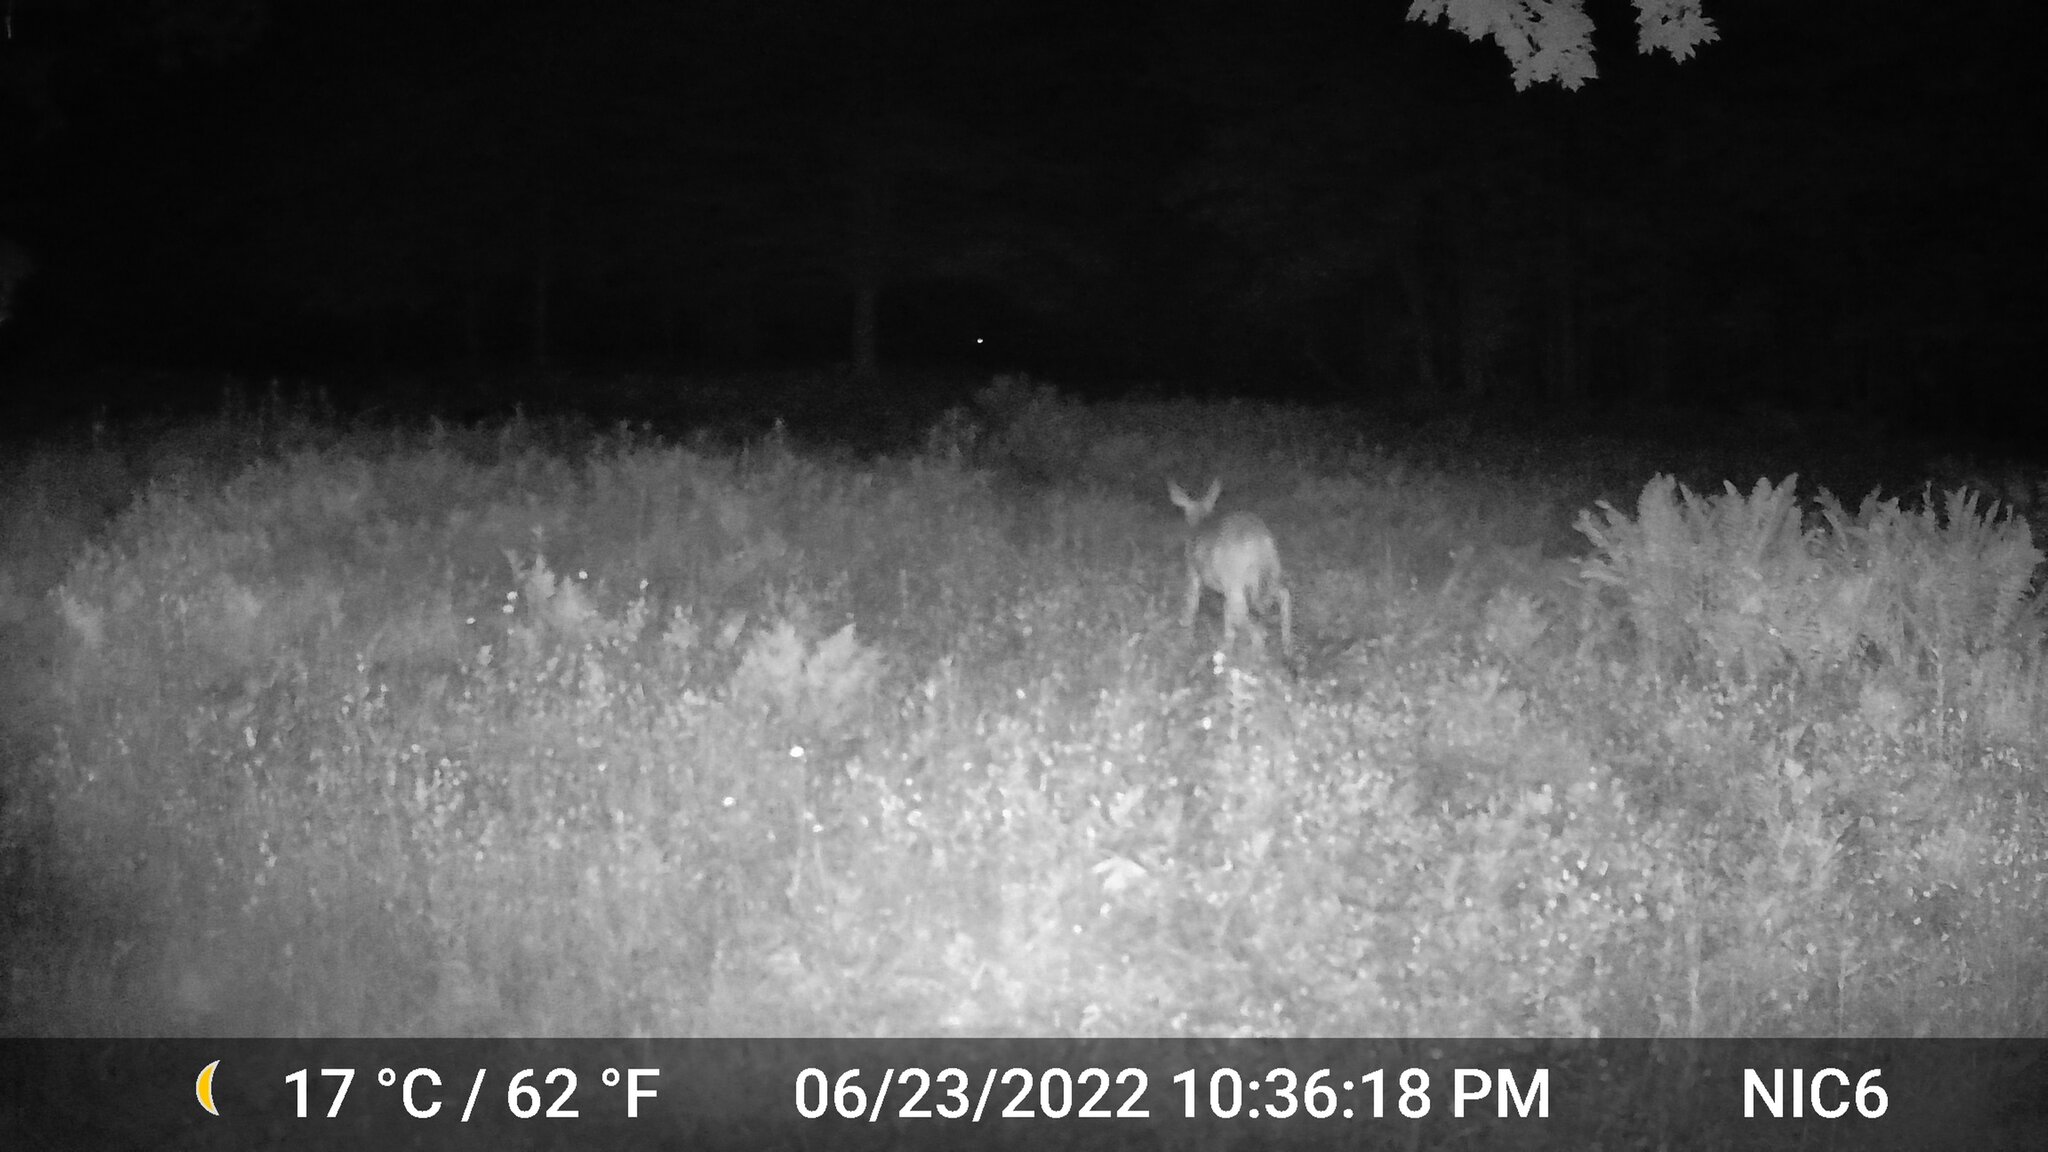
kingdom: Animalia
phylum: Chordata
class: Mammalia
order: Artiodactyla
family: Cervidae
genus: Odocoileus
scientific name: Odocoileus virginianus
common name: White-tailed deer
